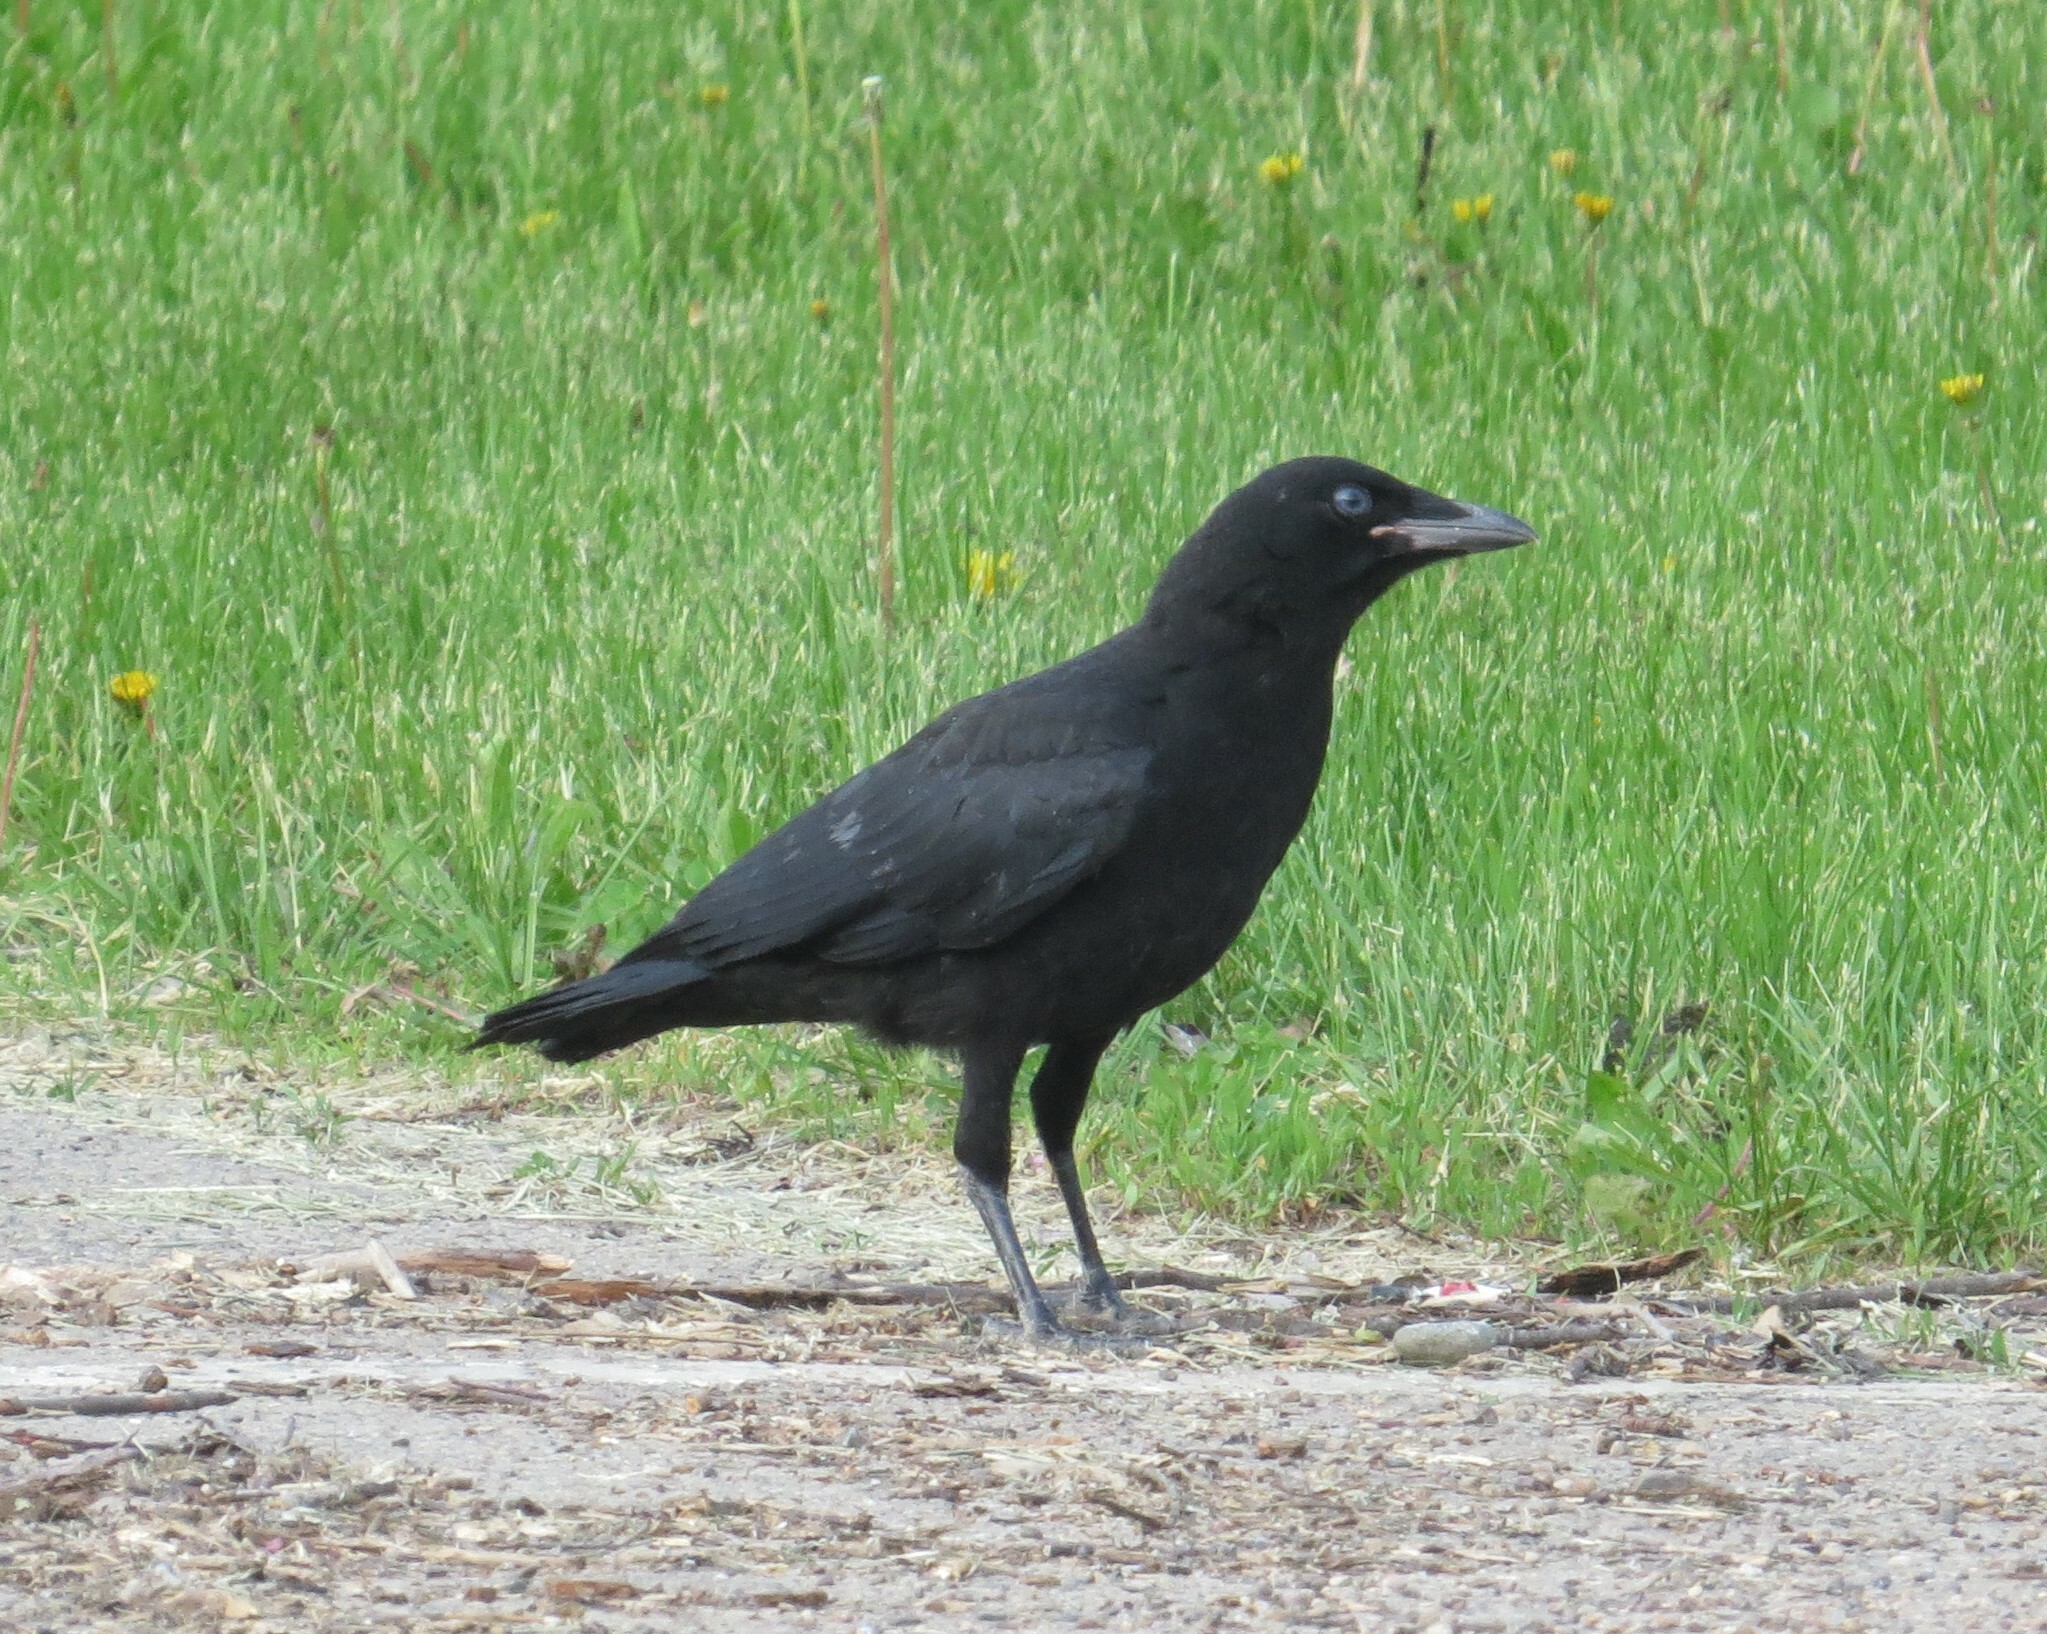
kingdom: Animalia
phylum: Chordata
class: Aves
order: Passeriformes
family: Corvidae
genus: Corvus
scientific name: Corvus brachyrhynchos
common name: American crow
